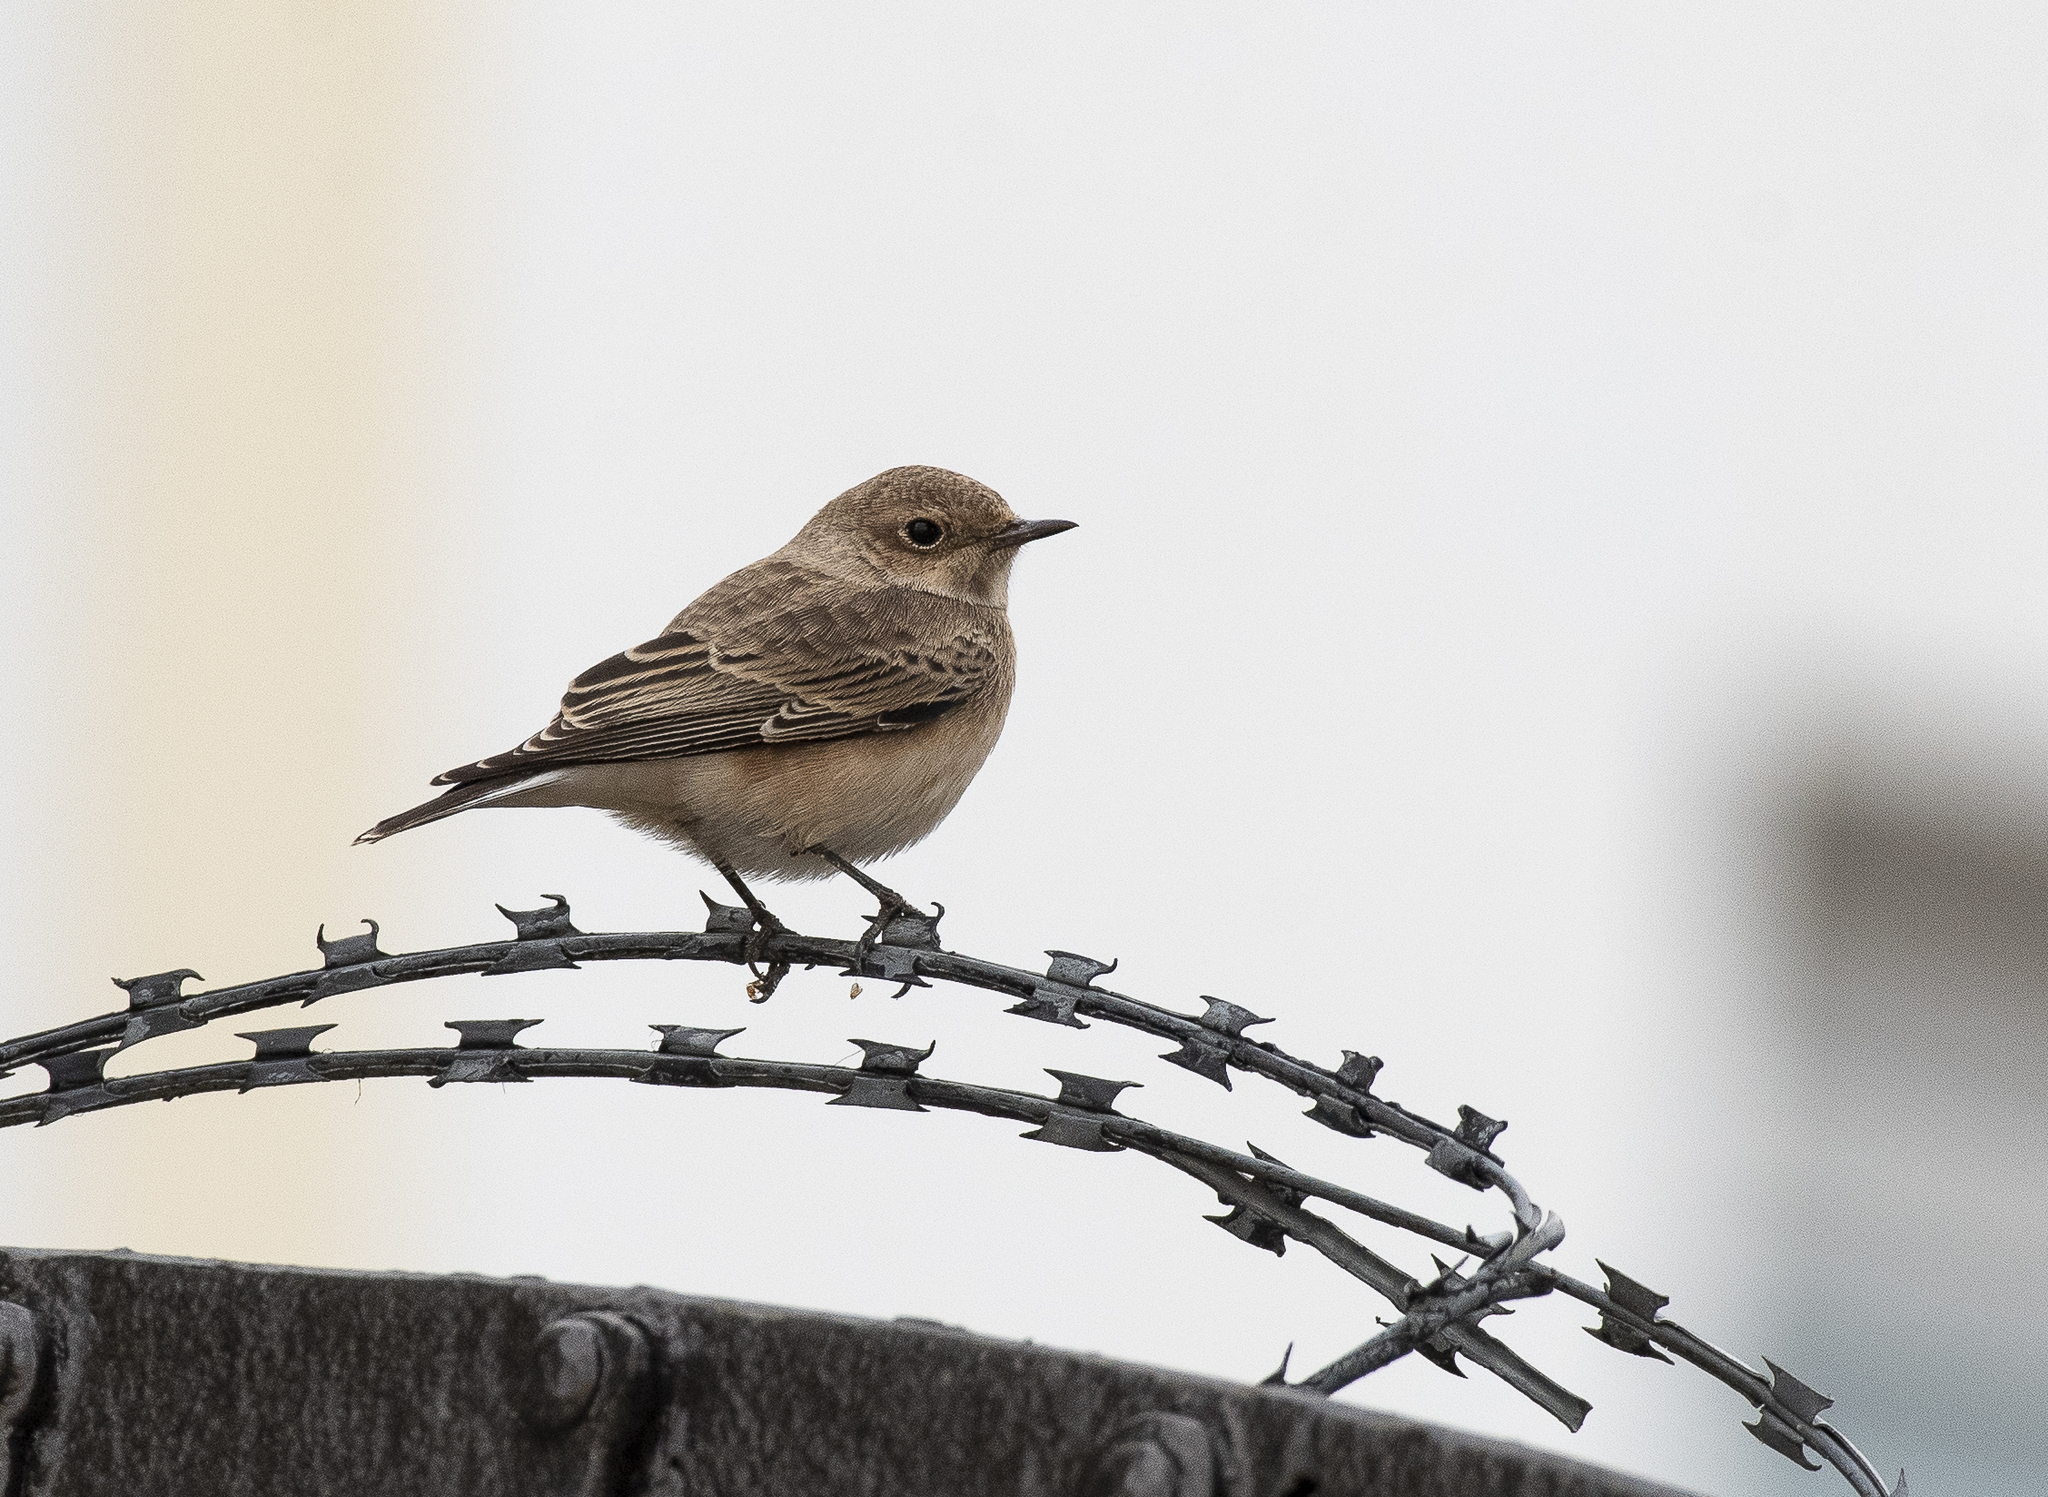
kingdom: Animalia
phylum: Chordata
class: Aves
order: Passeriformes
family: Muscicapidae
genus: Oenanthe
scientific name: Oenanthe oenanthe
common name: Northern wheatear
